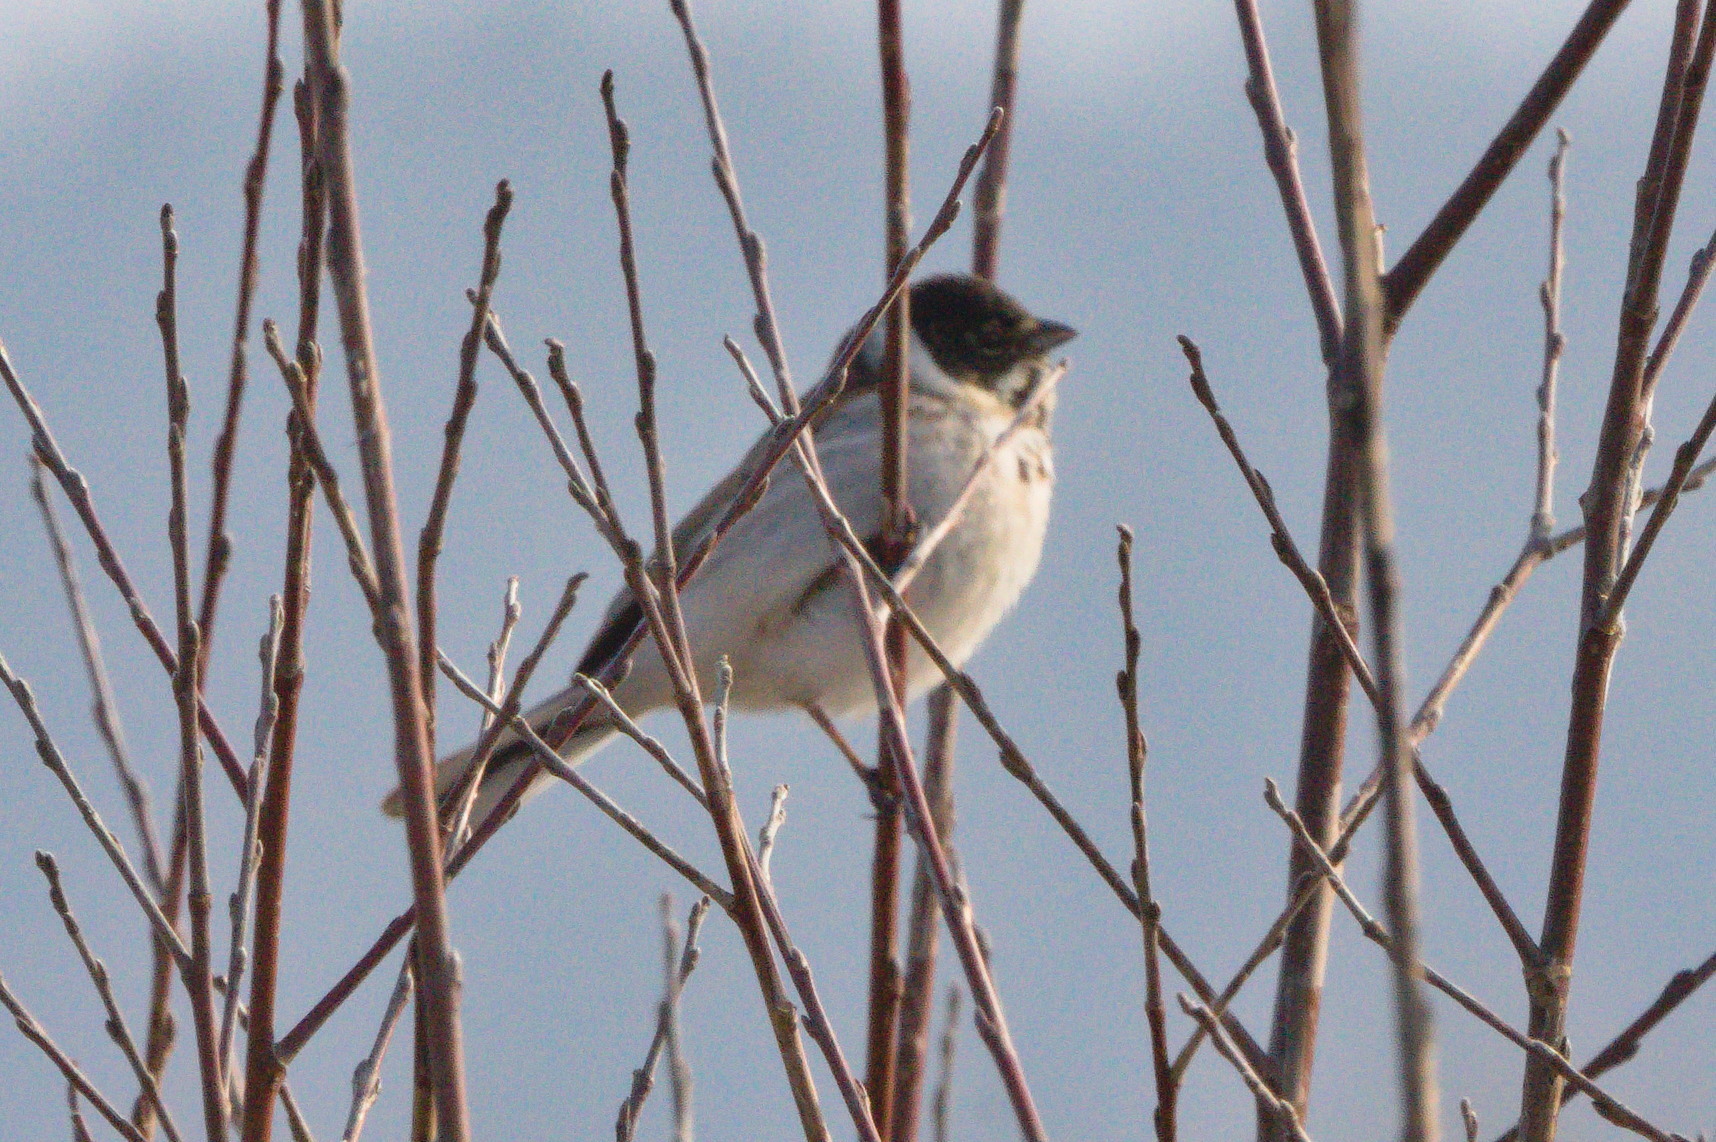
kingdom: Animalia
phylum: Chordata
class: Aves
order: Passeriformes
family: Emberizidae
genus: Emberiza
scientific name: Emberiza schoeniclus
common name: Reed bunting
